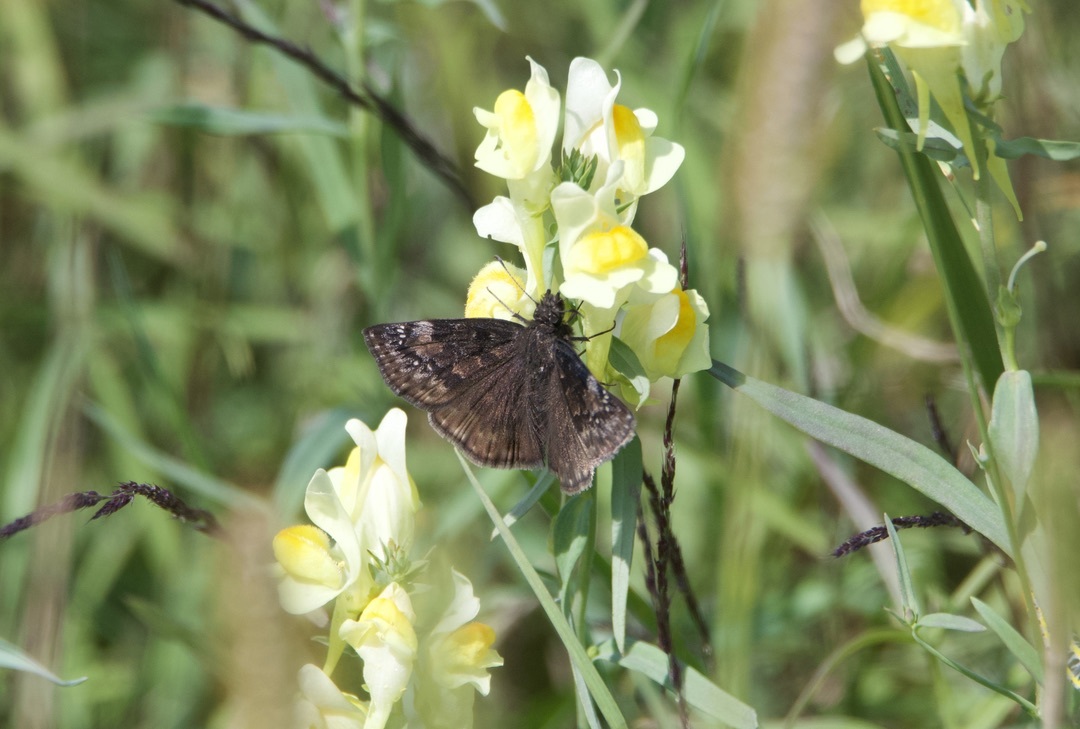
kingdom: Animalia
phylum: Arthropoda
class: Insecta
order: Lepidoptera
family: Hesperiidae
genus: Erynnis
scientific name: Erynnis baptisiae
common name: Wild indigo duskywing
